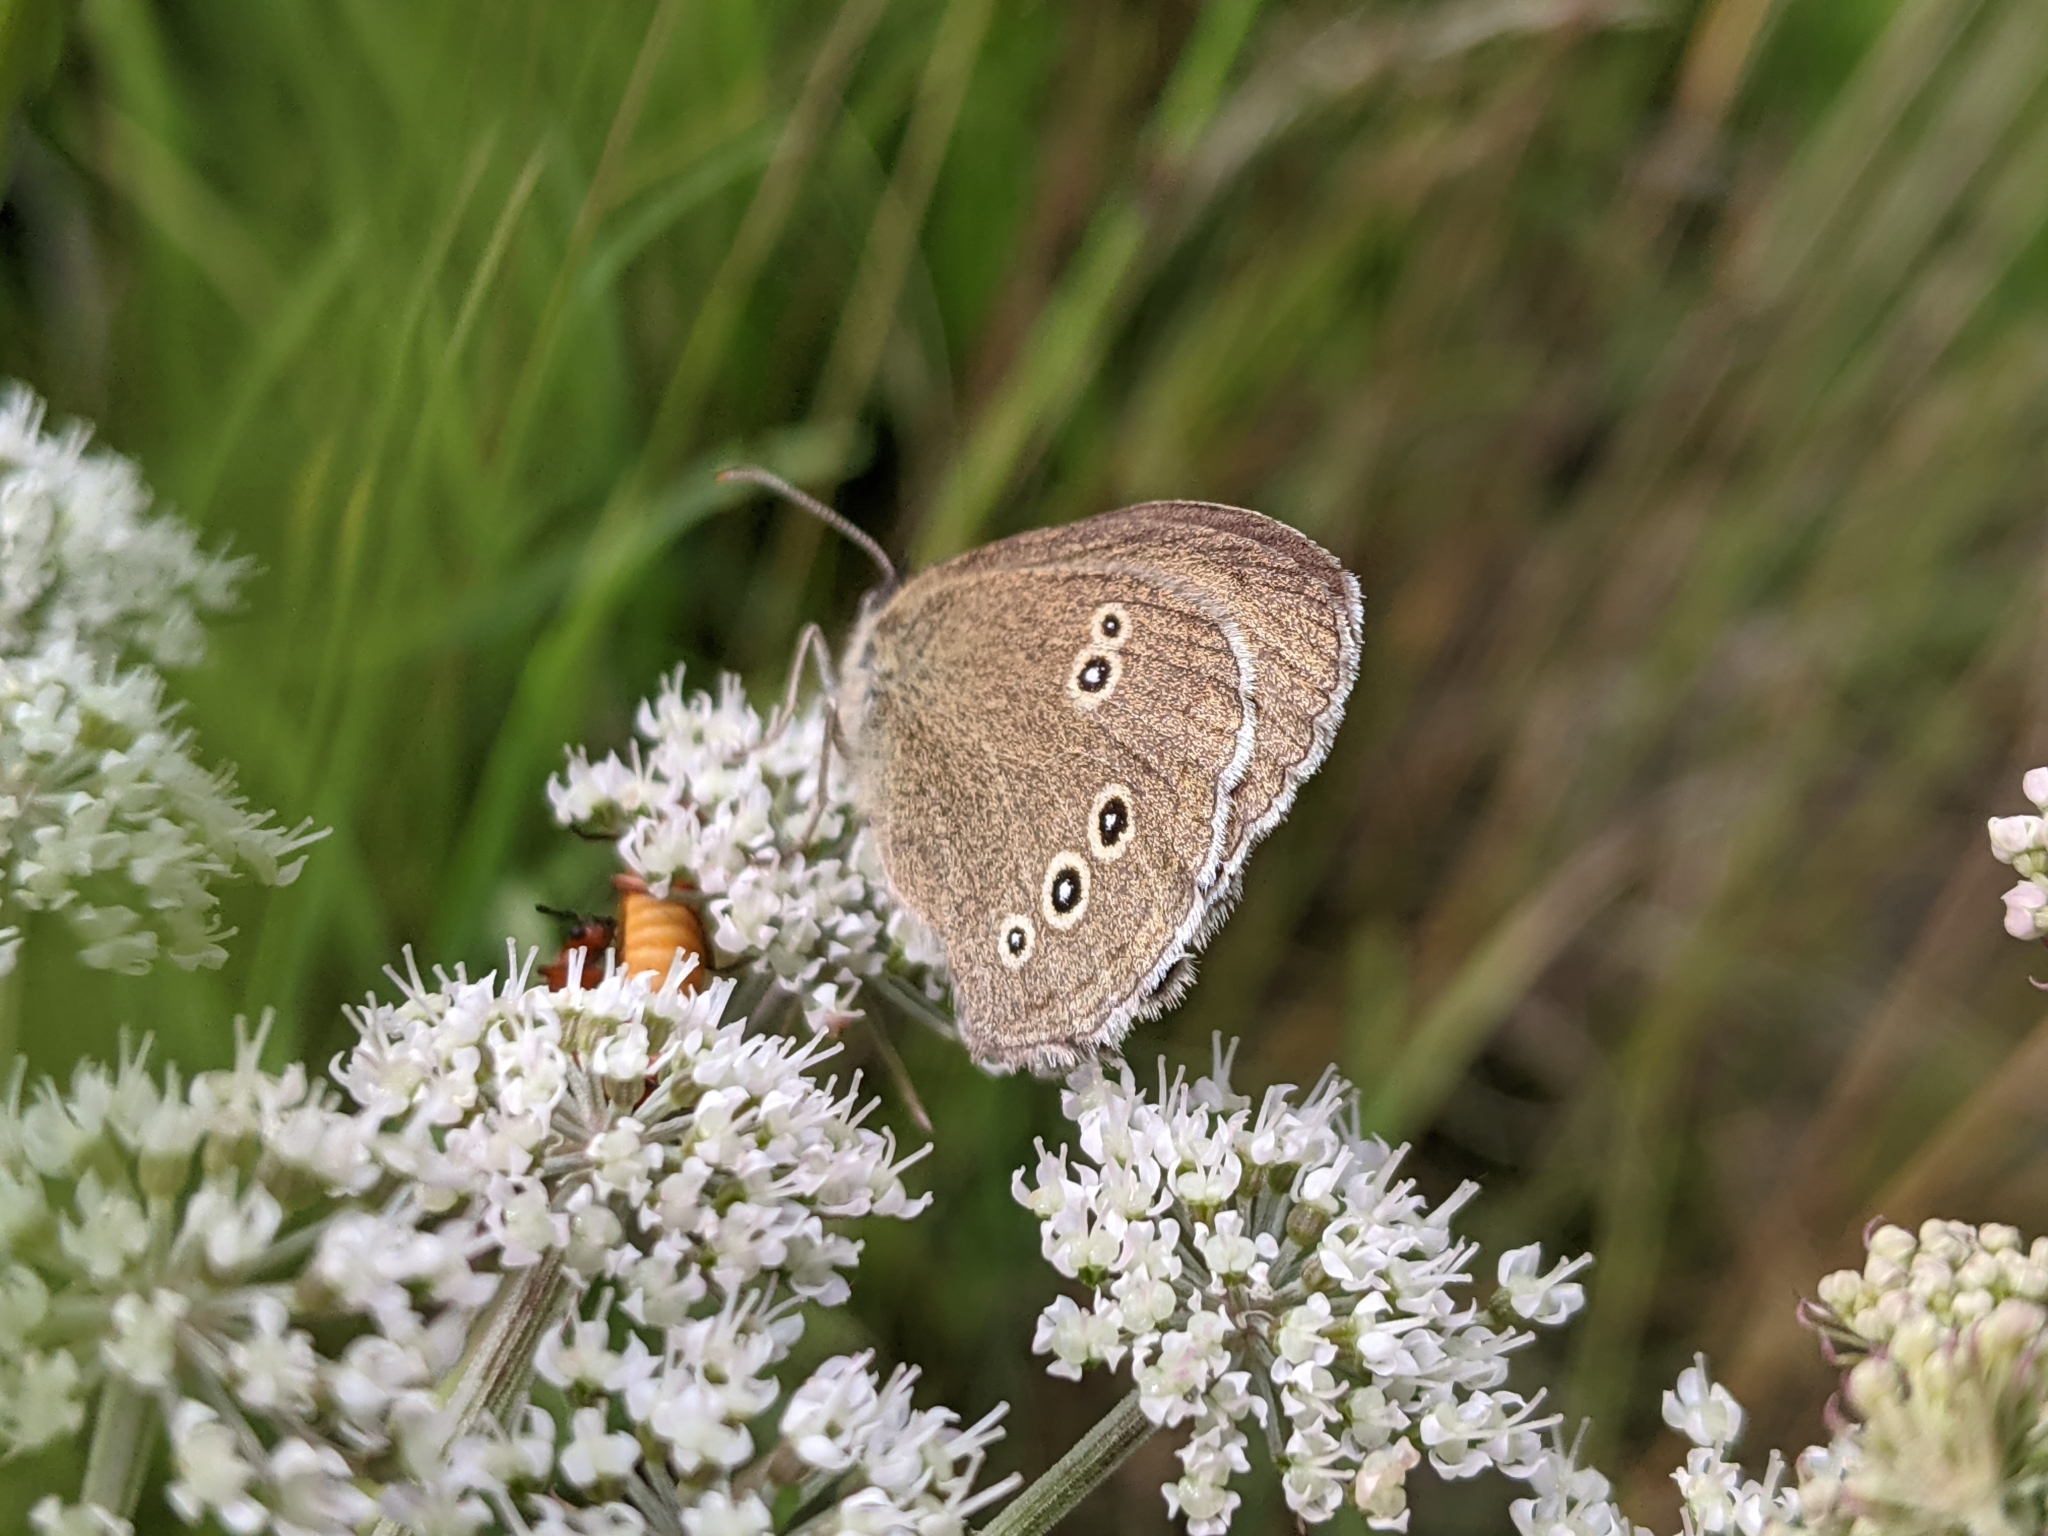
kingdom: Animalia
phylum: Arthropoda
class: Insecta
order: Lepidoptera
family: Nymphalidae
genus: Aphantopus
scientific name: Aphantopus hyperantus
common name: Ringlet
